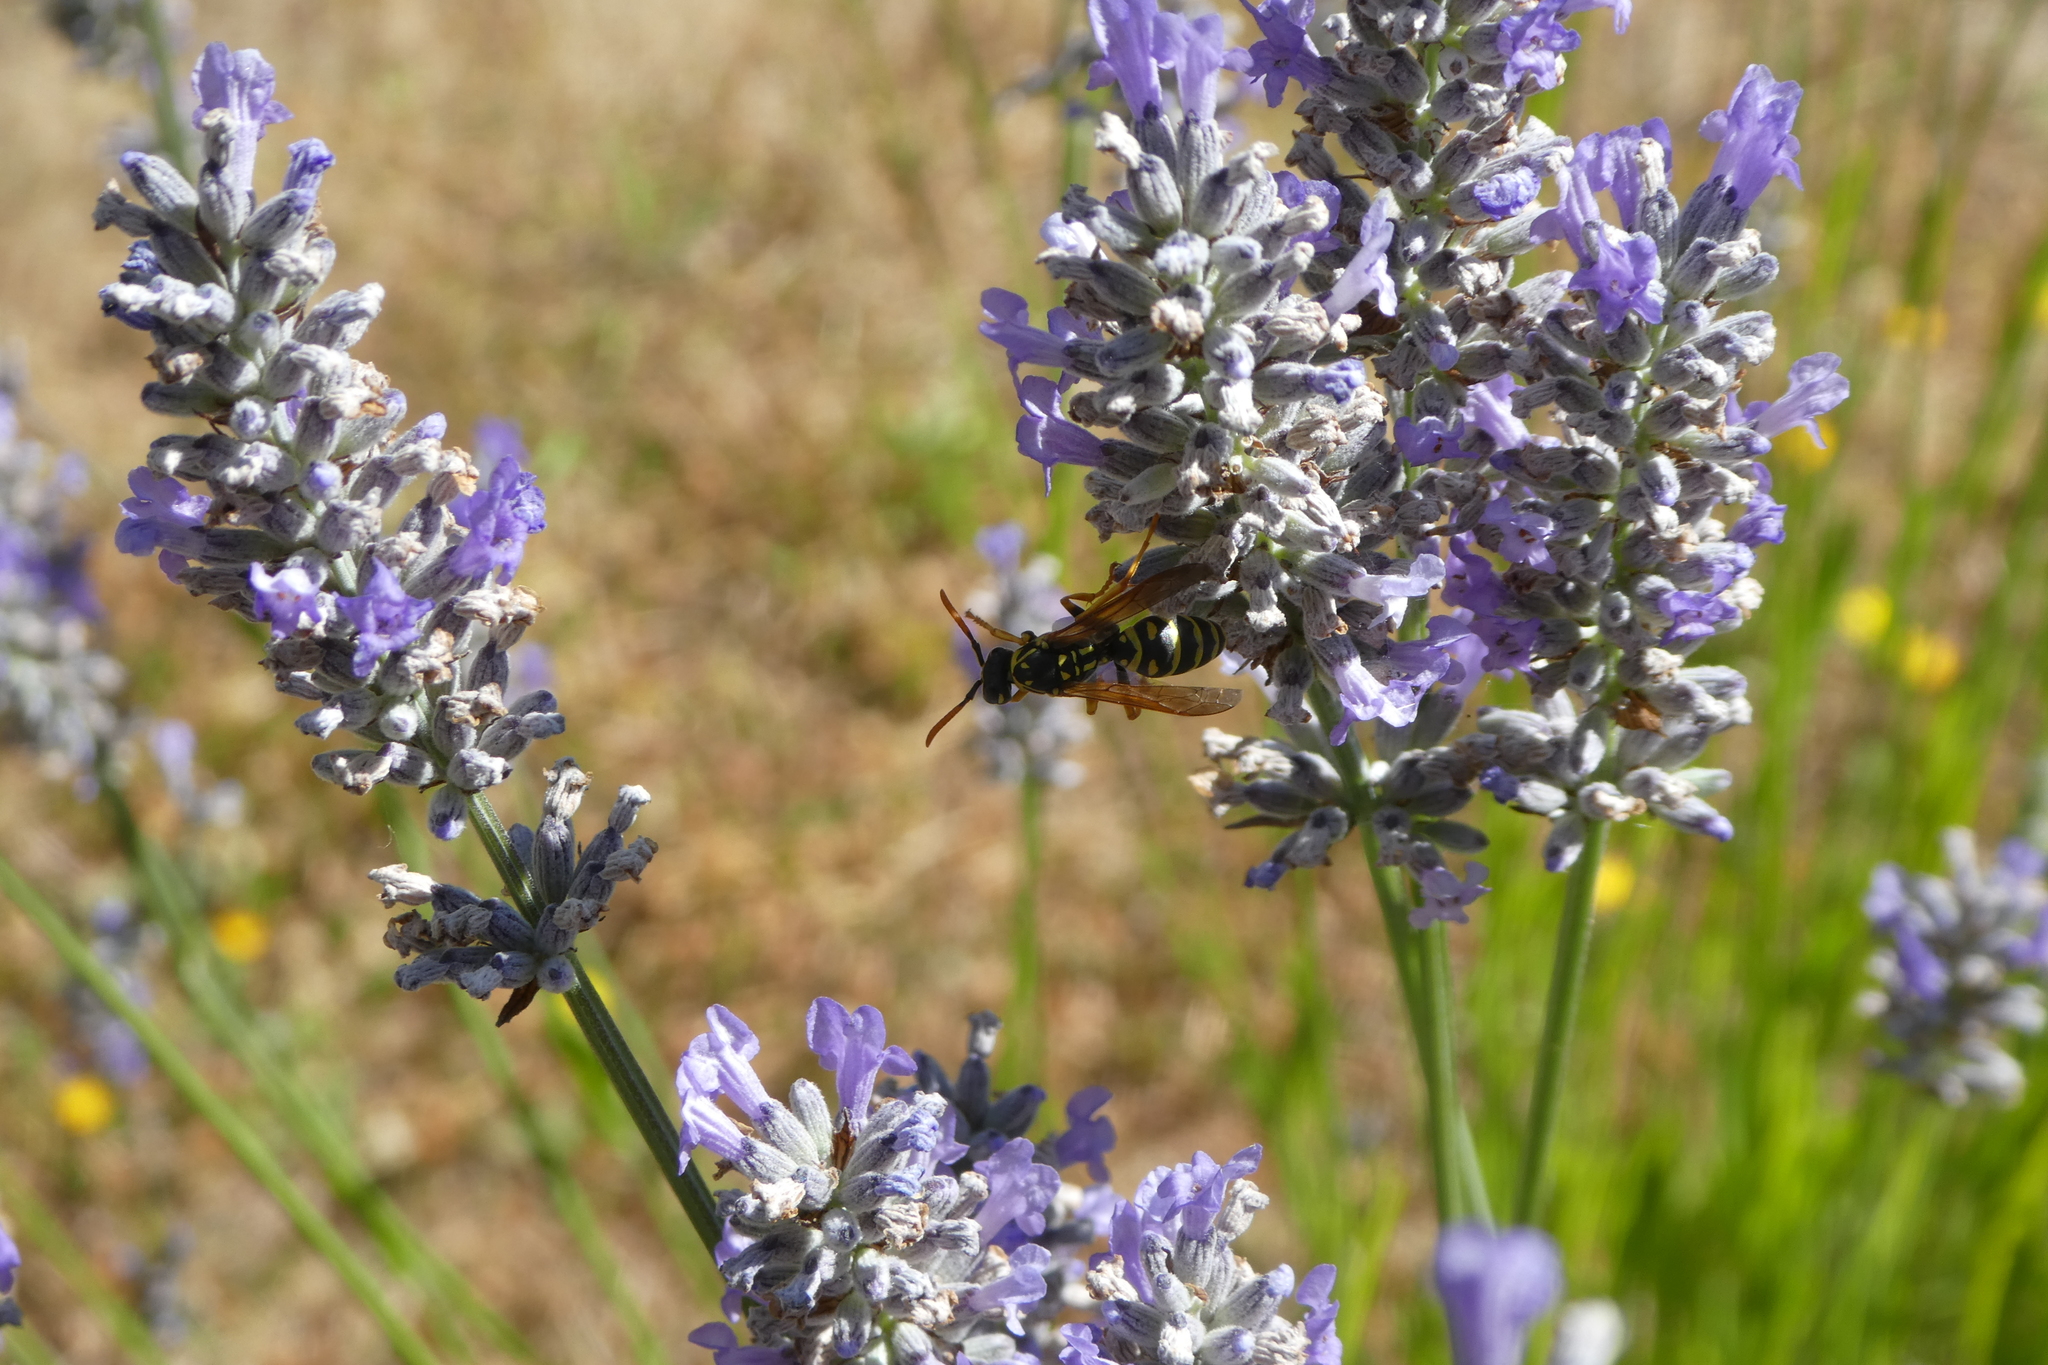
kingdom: Animalia
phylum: Arthropoda
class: Insecta
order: Hymenoptera
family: Eumenidae
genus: Polistes
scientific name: Polistes dominula
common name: Paper wasp
